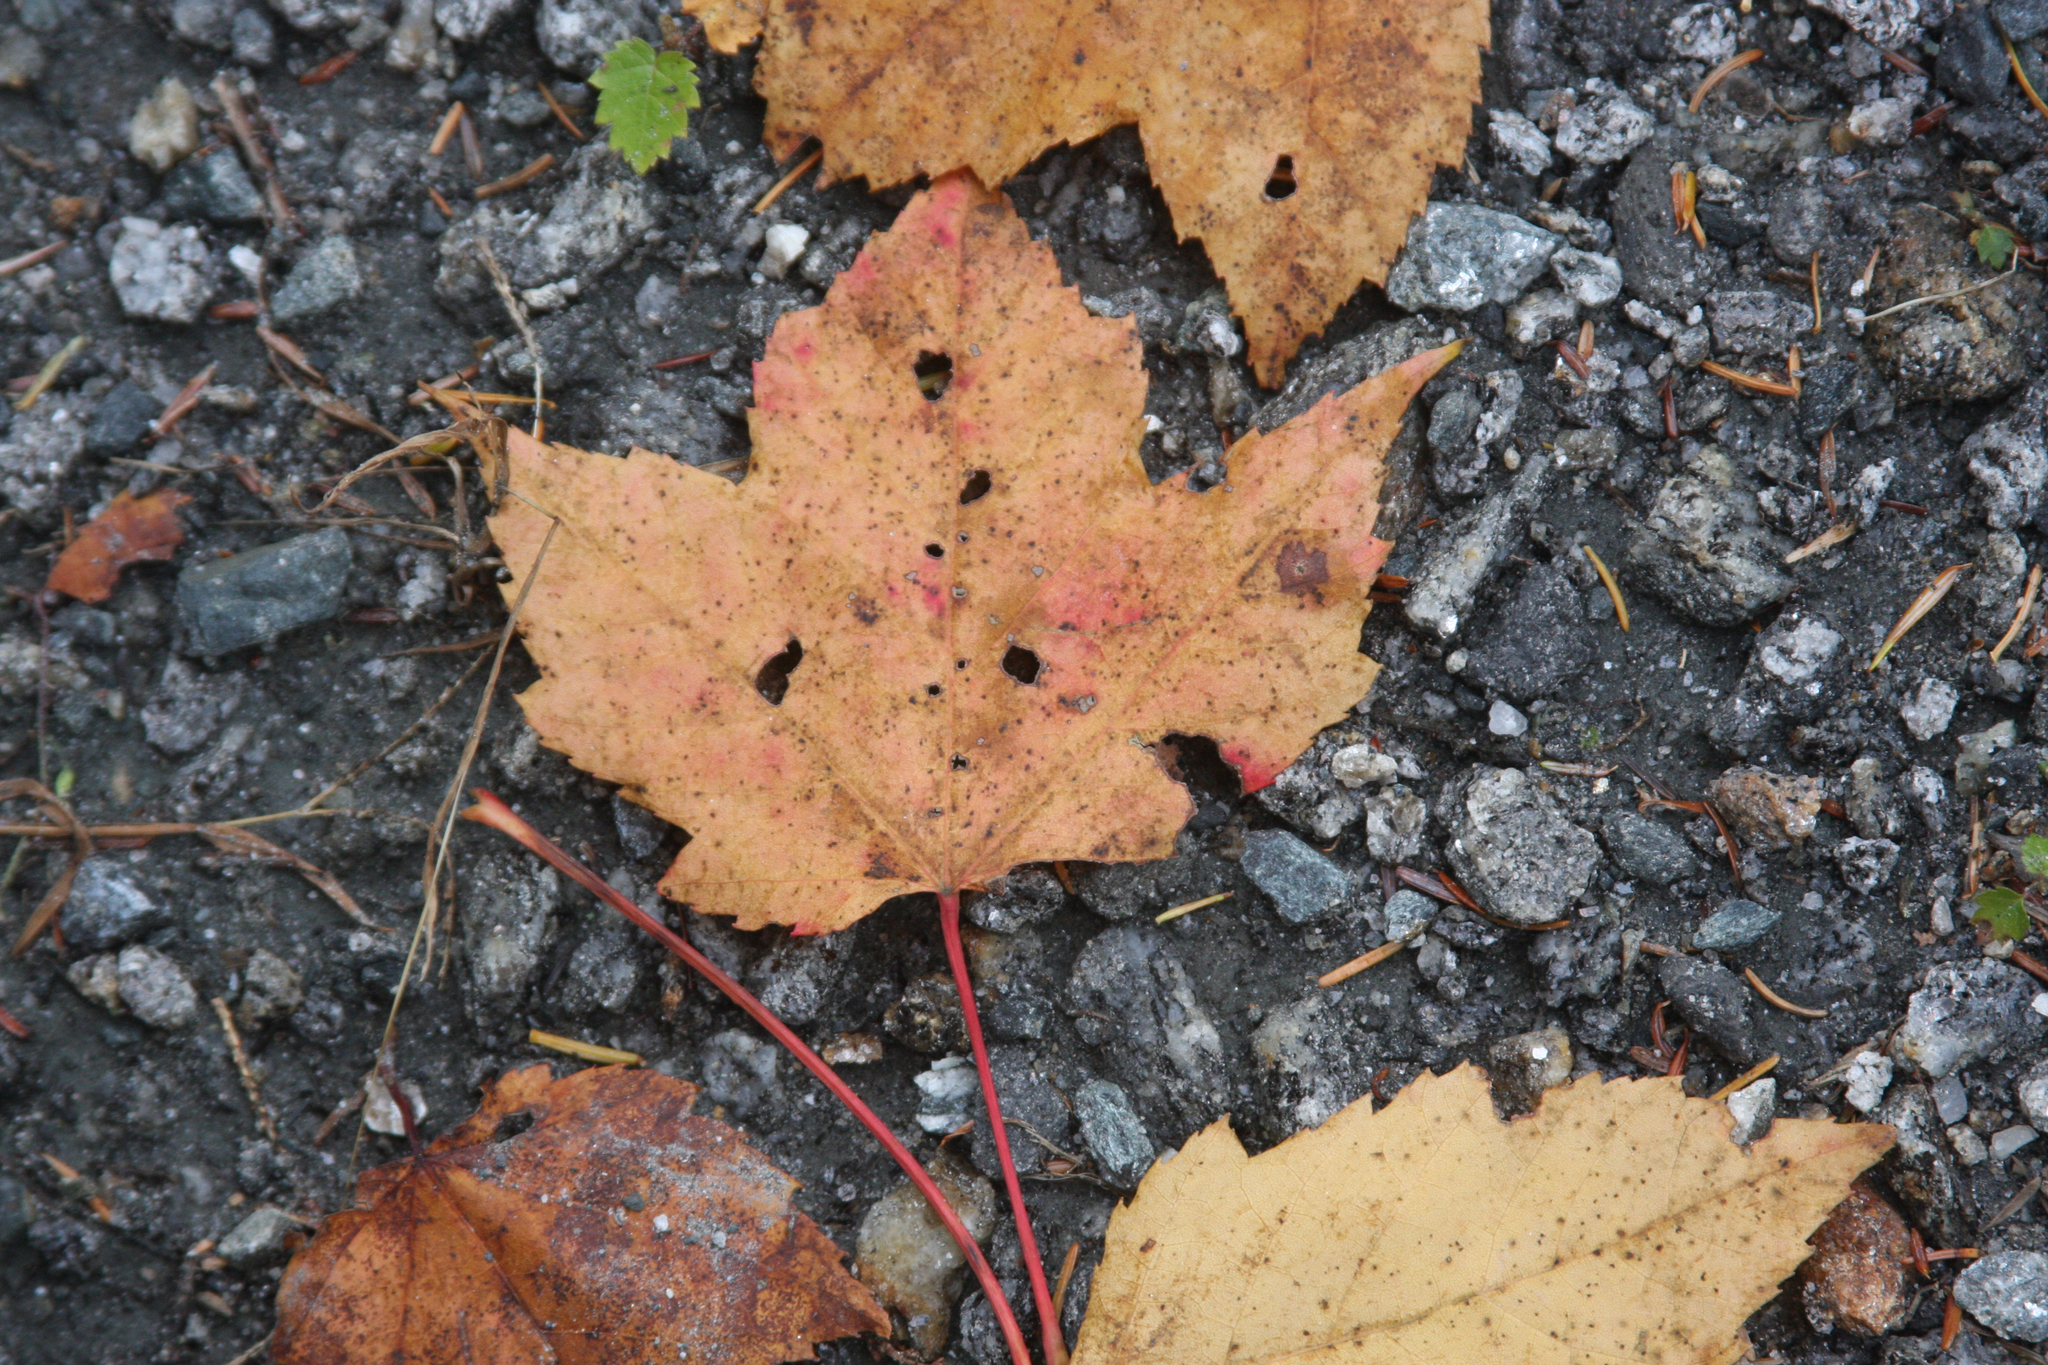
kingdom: Plantae
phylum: Tracheophyta
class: Magnoliopsida
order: Sapindales
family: Sapindaceae
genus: Acer
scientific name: Acer rubrum
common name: Red maple
